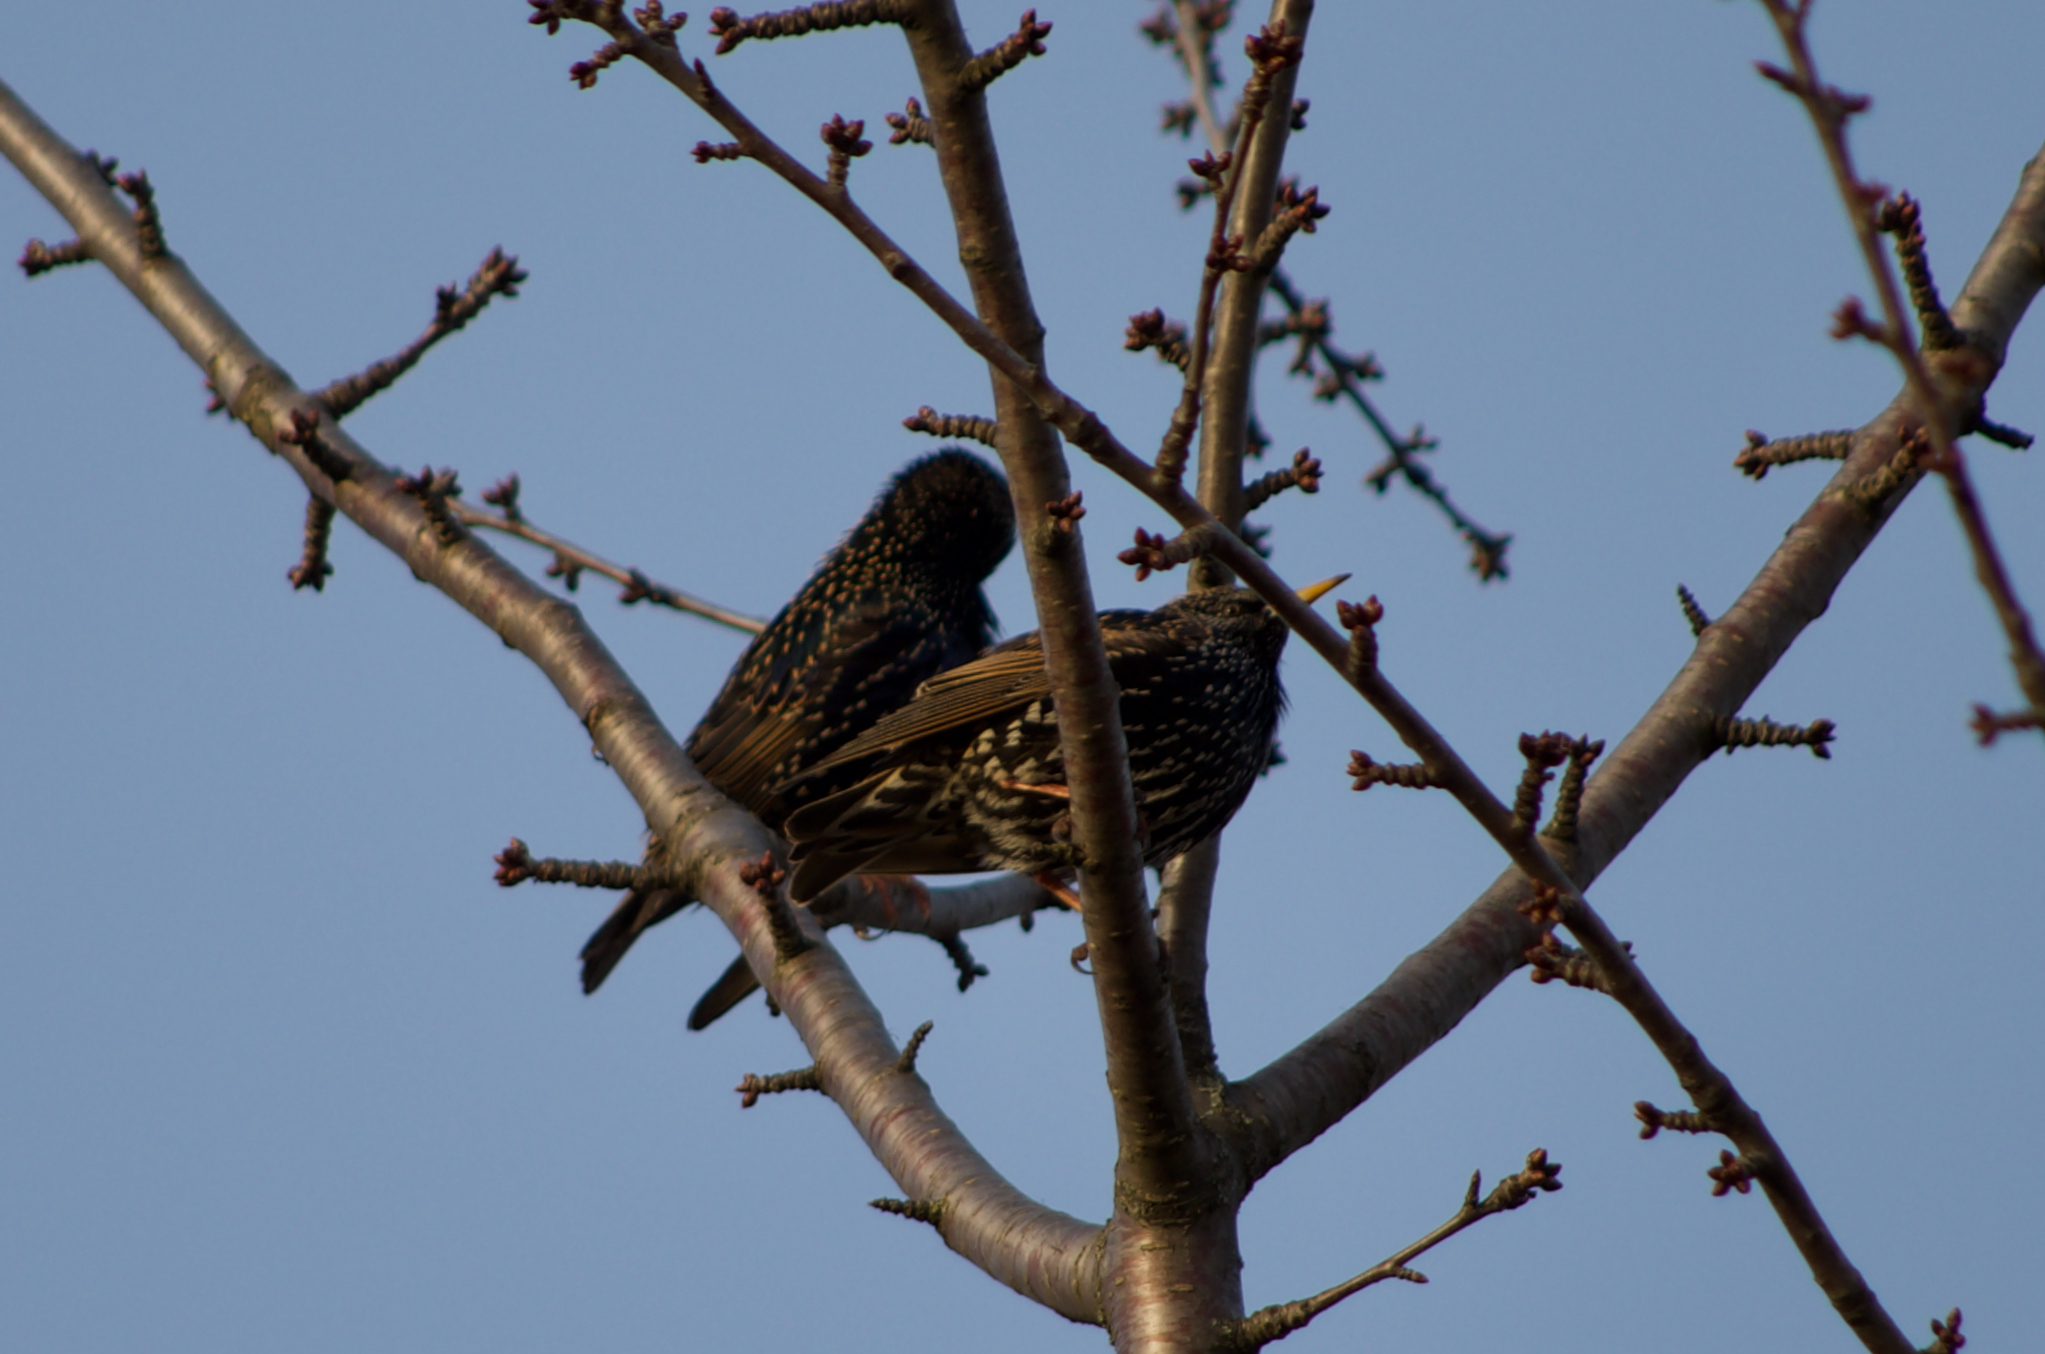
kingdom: Animalia
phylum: Chordata
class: Aves
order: Passeriformes
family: Sturnidae
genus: Sturnus
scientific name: Sturnus vulgaris
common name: Common starling
